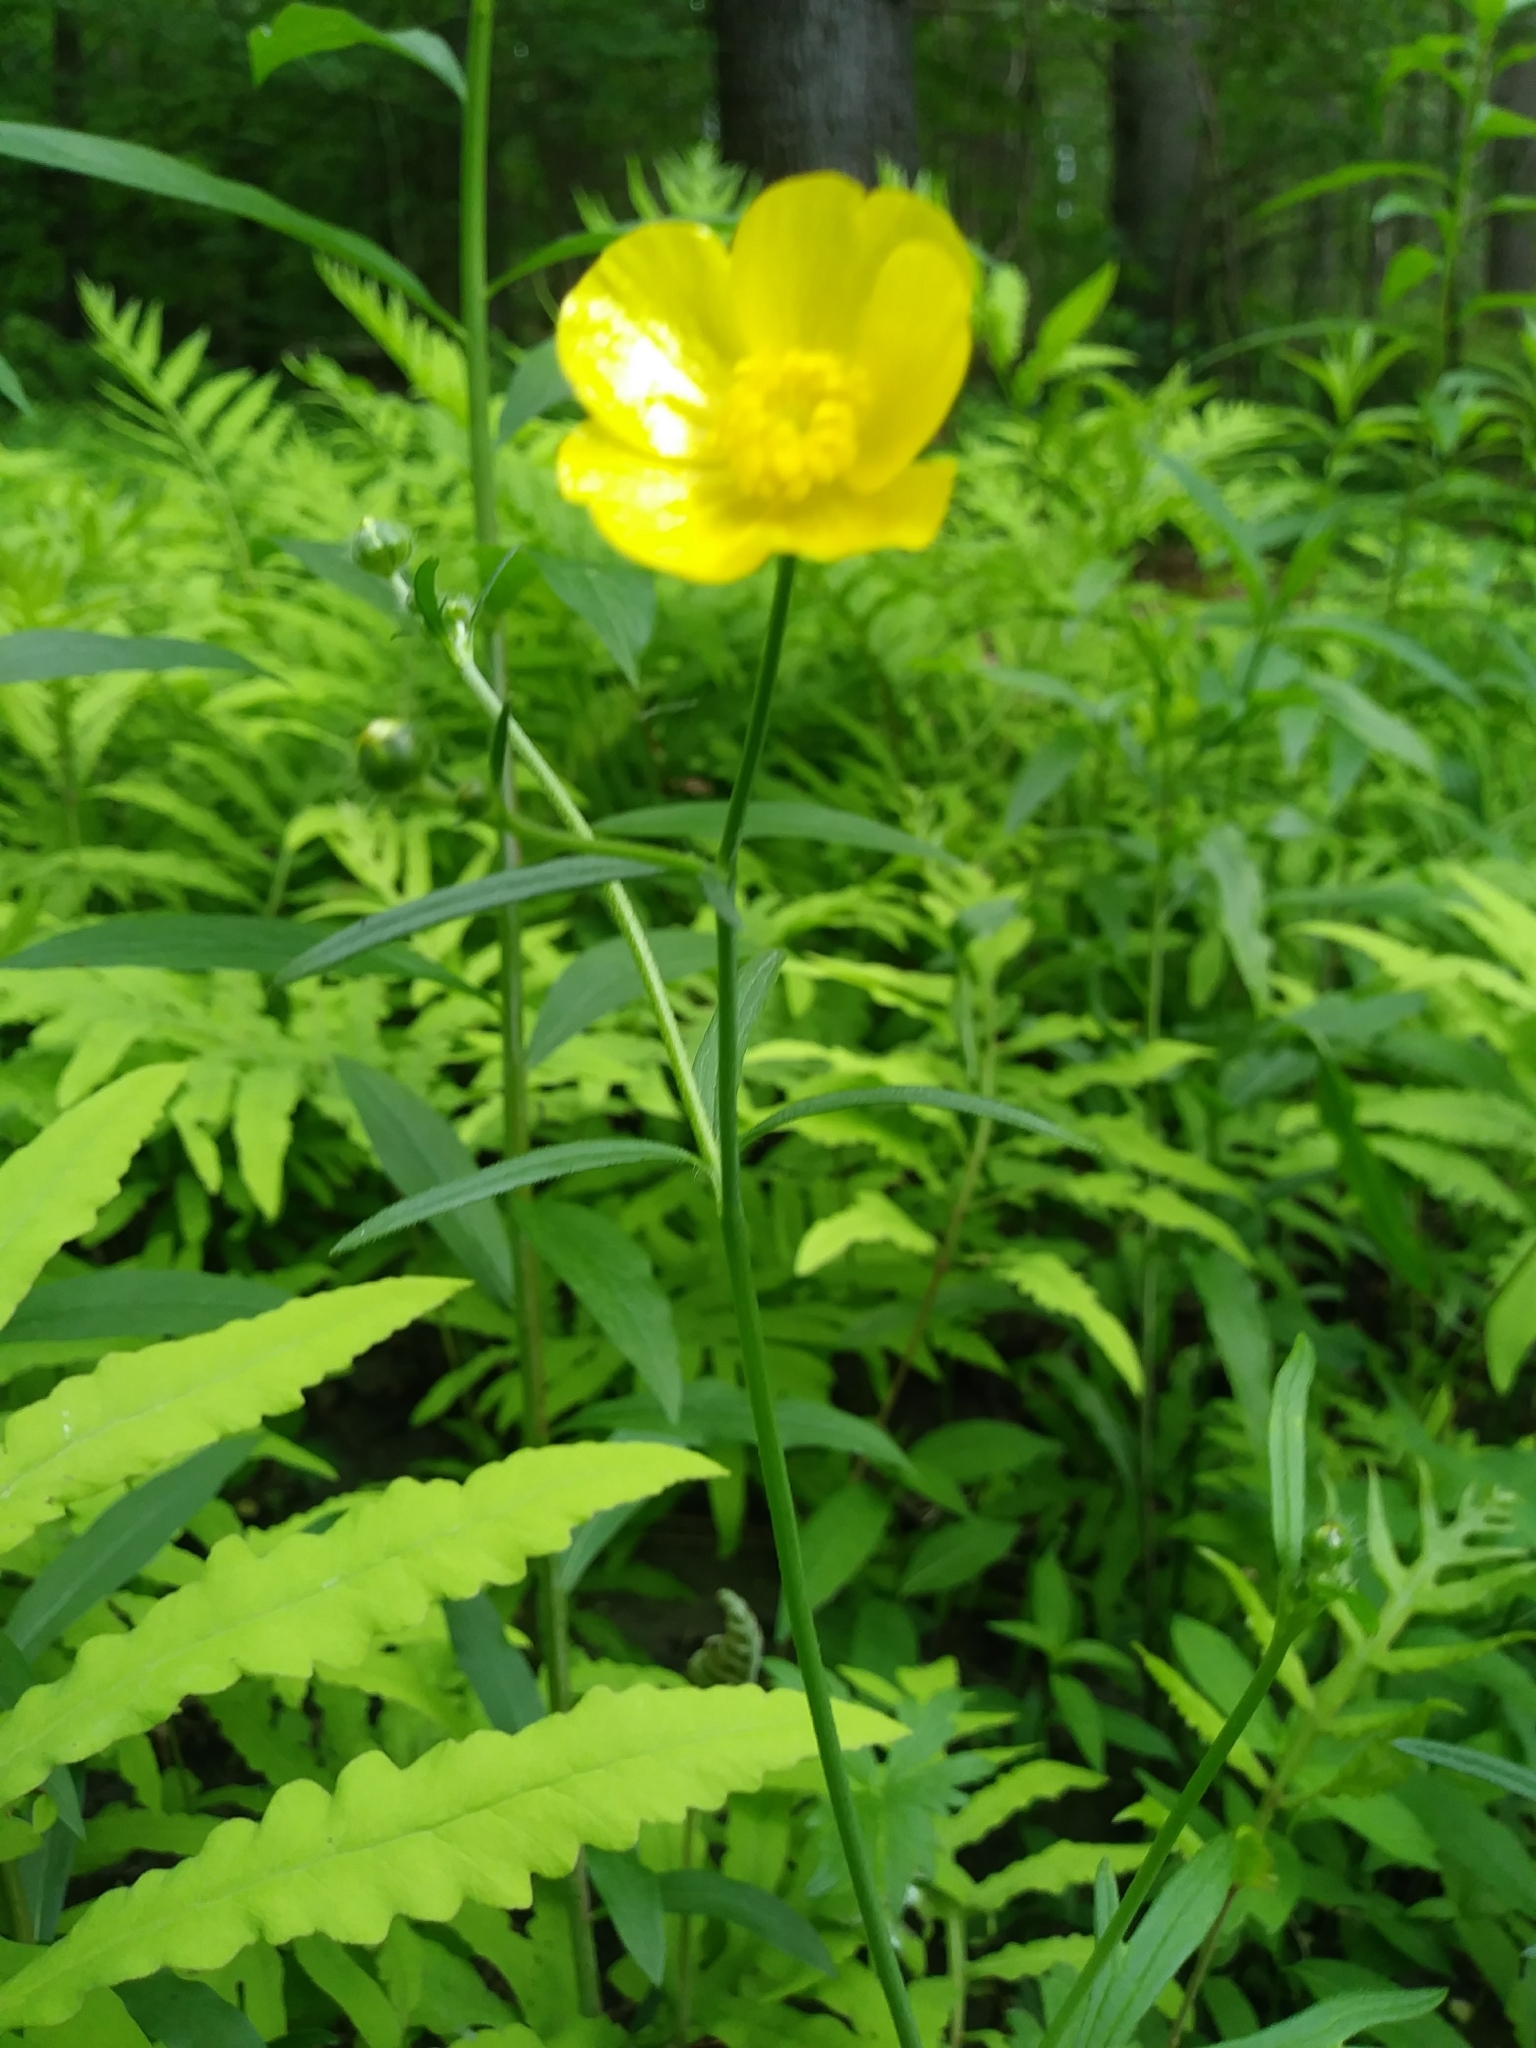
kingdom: Plantae
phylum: Tracheophyta
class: Magnoliopsida
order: Ranunculales
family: Ranunculaceae
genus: Ranunculus
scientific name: Ranunculus acris
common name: Meadow buttercup
